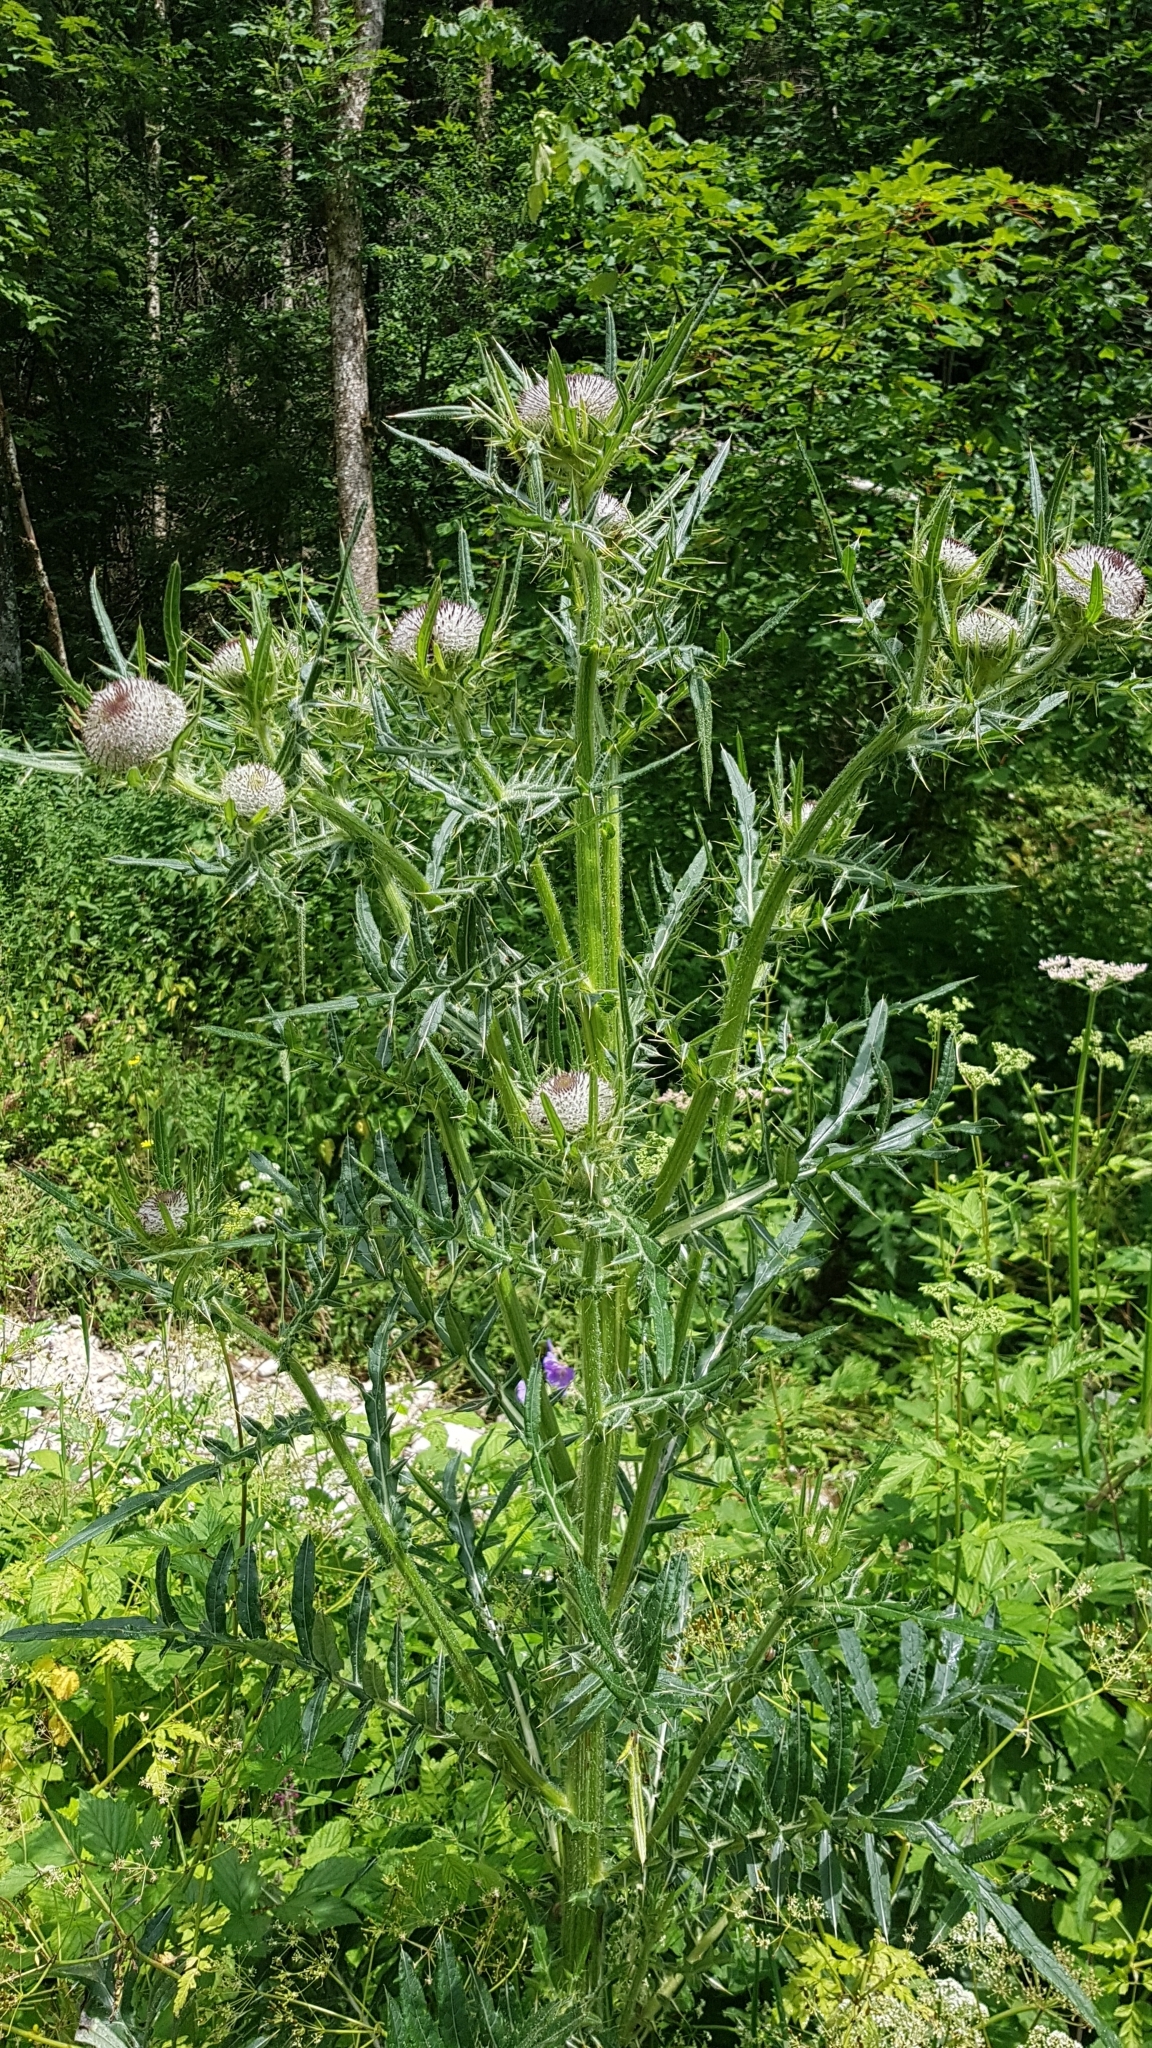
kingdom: Plantae
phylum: Tracheophyta
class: Magnoliopsida
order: Asterales
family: Asteraceae
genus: Lophiolepis
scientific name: Lophiolepis eriophora
